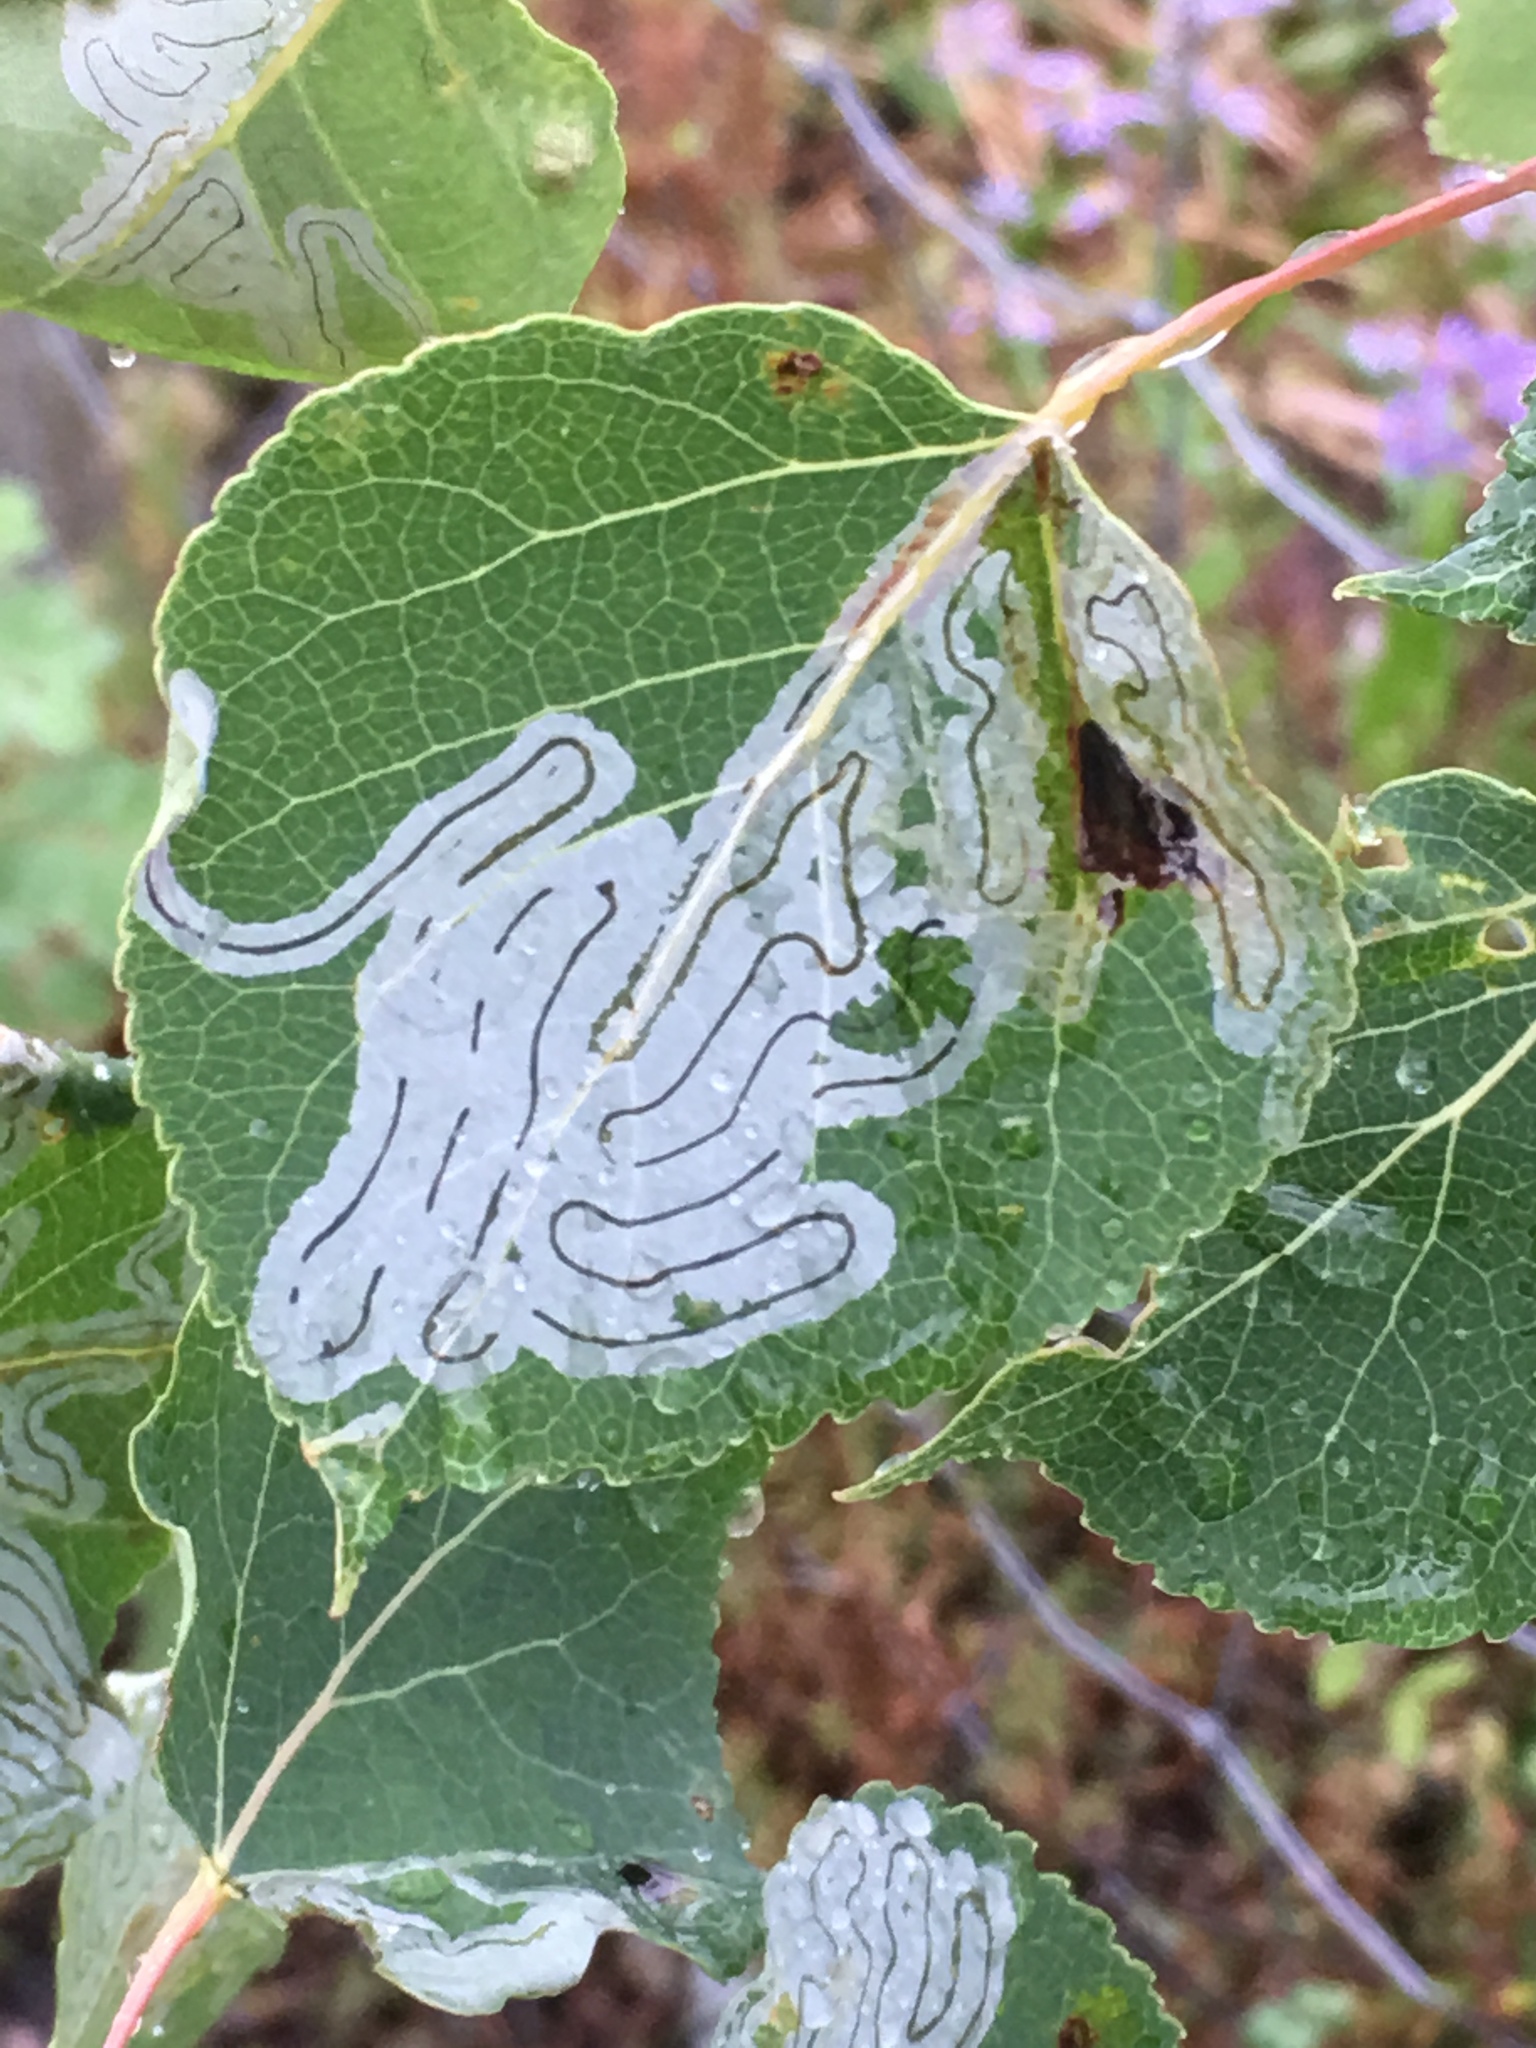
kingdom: Animalia
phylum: Arthropoda
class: Insecta
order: Lepidoptera
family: Gracillariidae
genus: Phyllocnistis
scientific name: Phyllocnistis populiella
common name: Aspen serpentine leafminer moth
